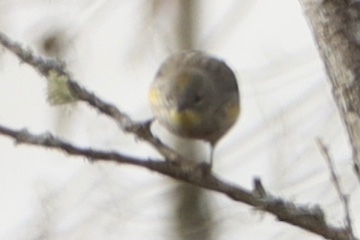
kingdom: Animalia
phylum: Chordata
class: Aves
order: Passeriformes
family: Parulidae
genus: Setophaga
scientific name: Setophaga auduboni
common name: Audubon's warbler
